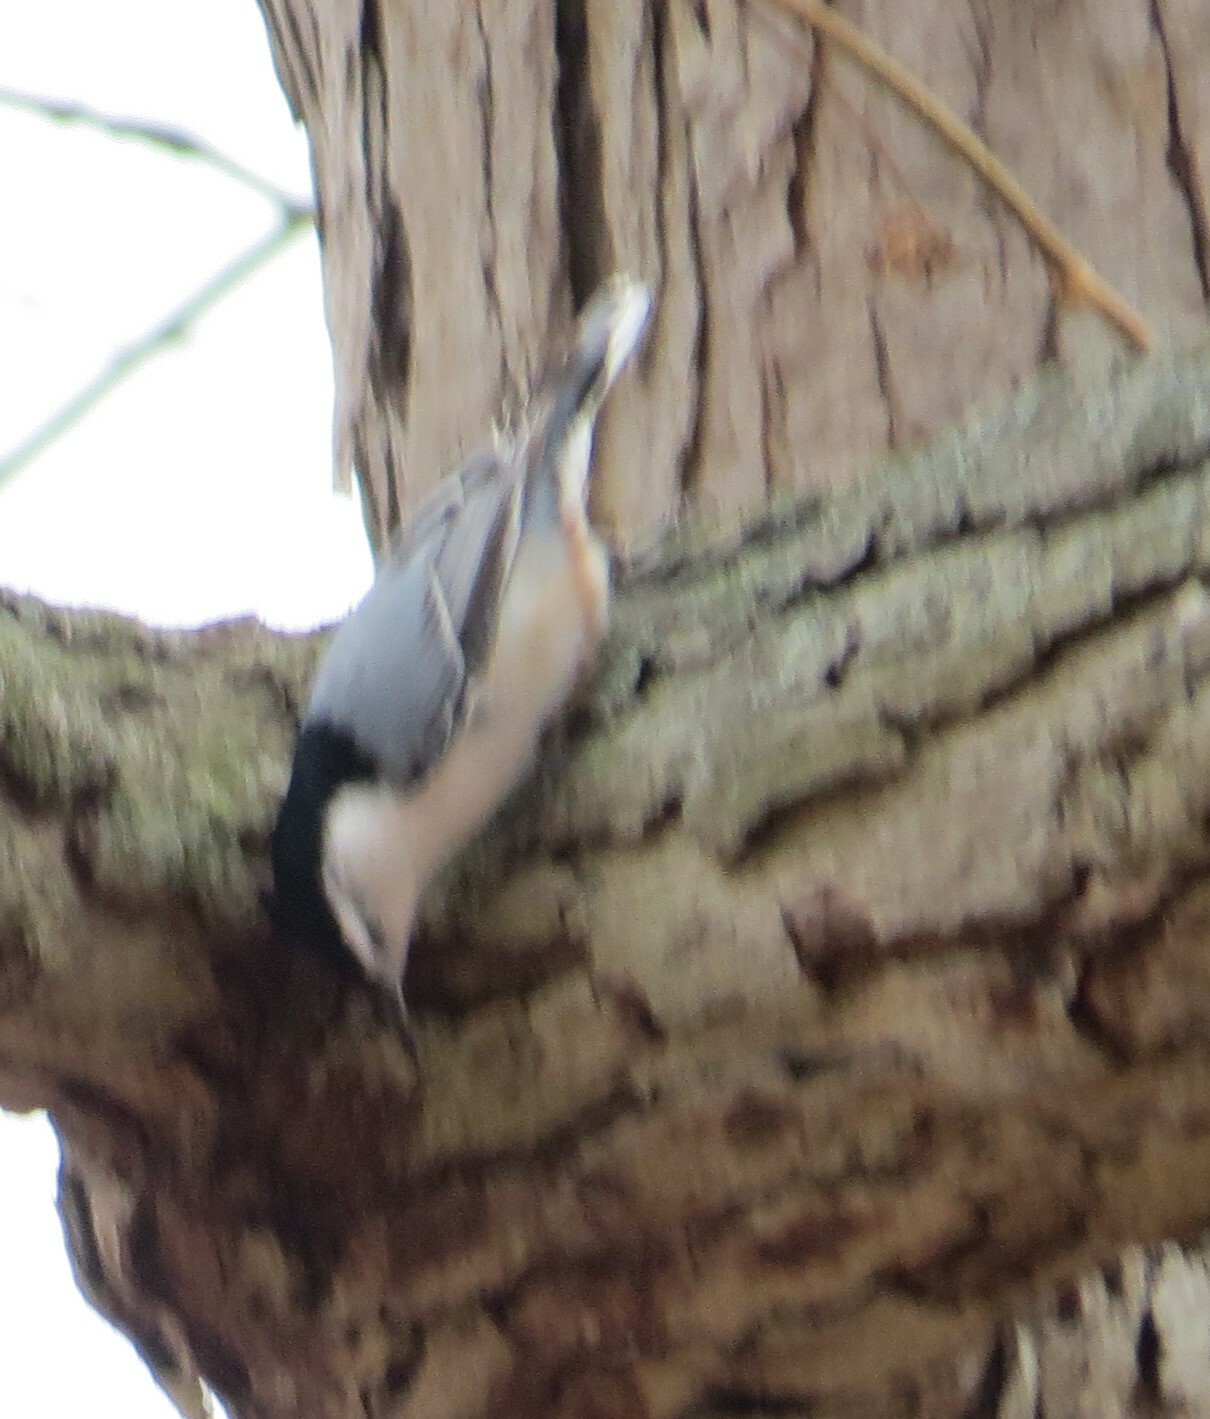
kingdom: Animalia
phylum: Chordata
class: Aves
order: Passeriformes
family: Sittidae
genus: Sitta
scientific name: Sitta carolinensis
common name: White-breasted nuthatch
